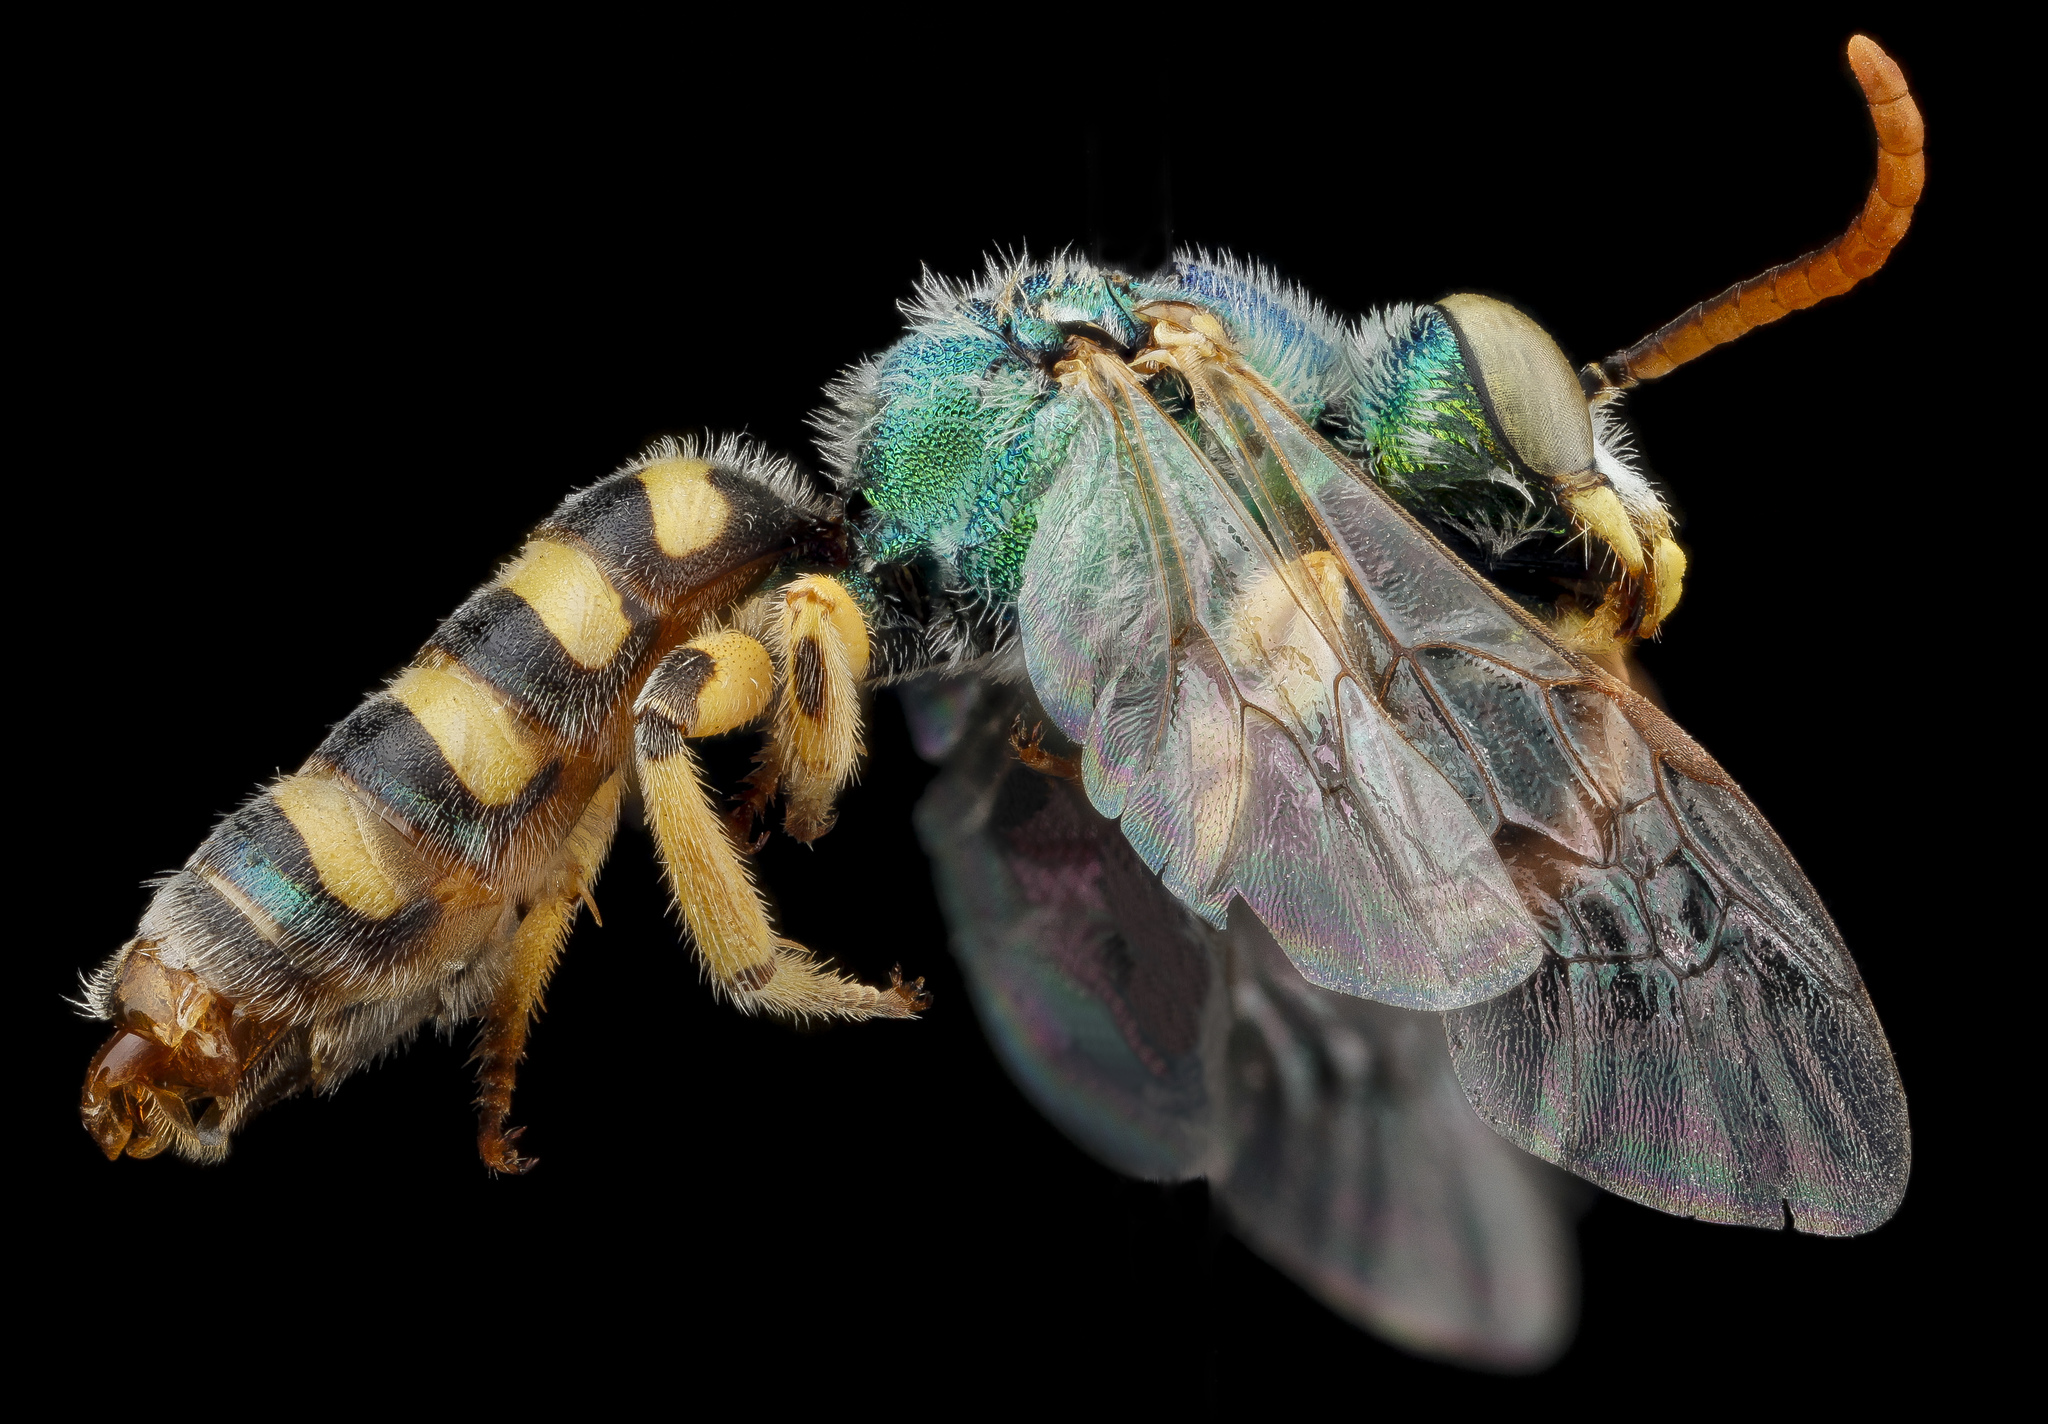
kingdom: Animalia
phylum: Arthropoda
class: Insecta
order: Hymenoptera
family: Halictidae
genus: Agapostemon
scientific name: Agapostemon angelicus
